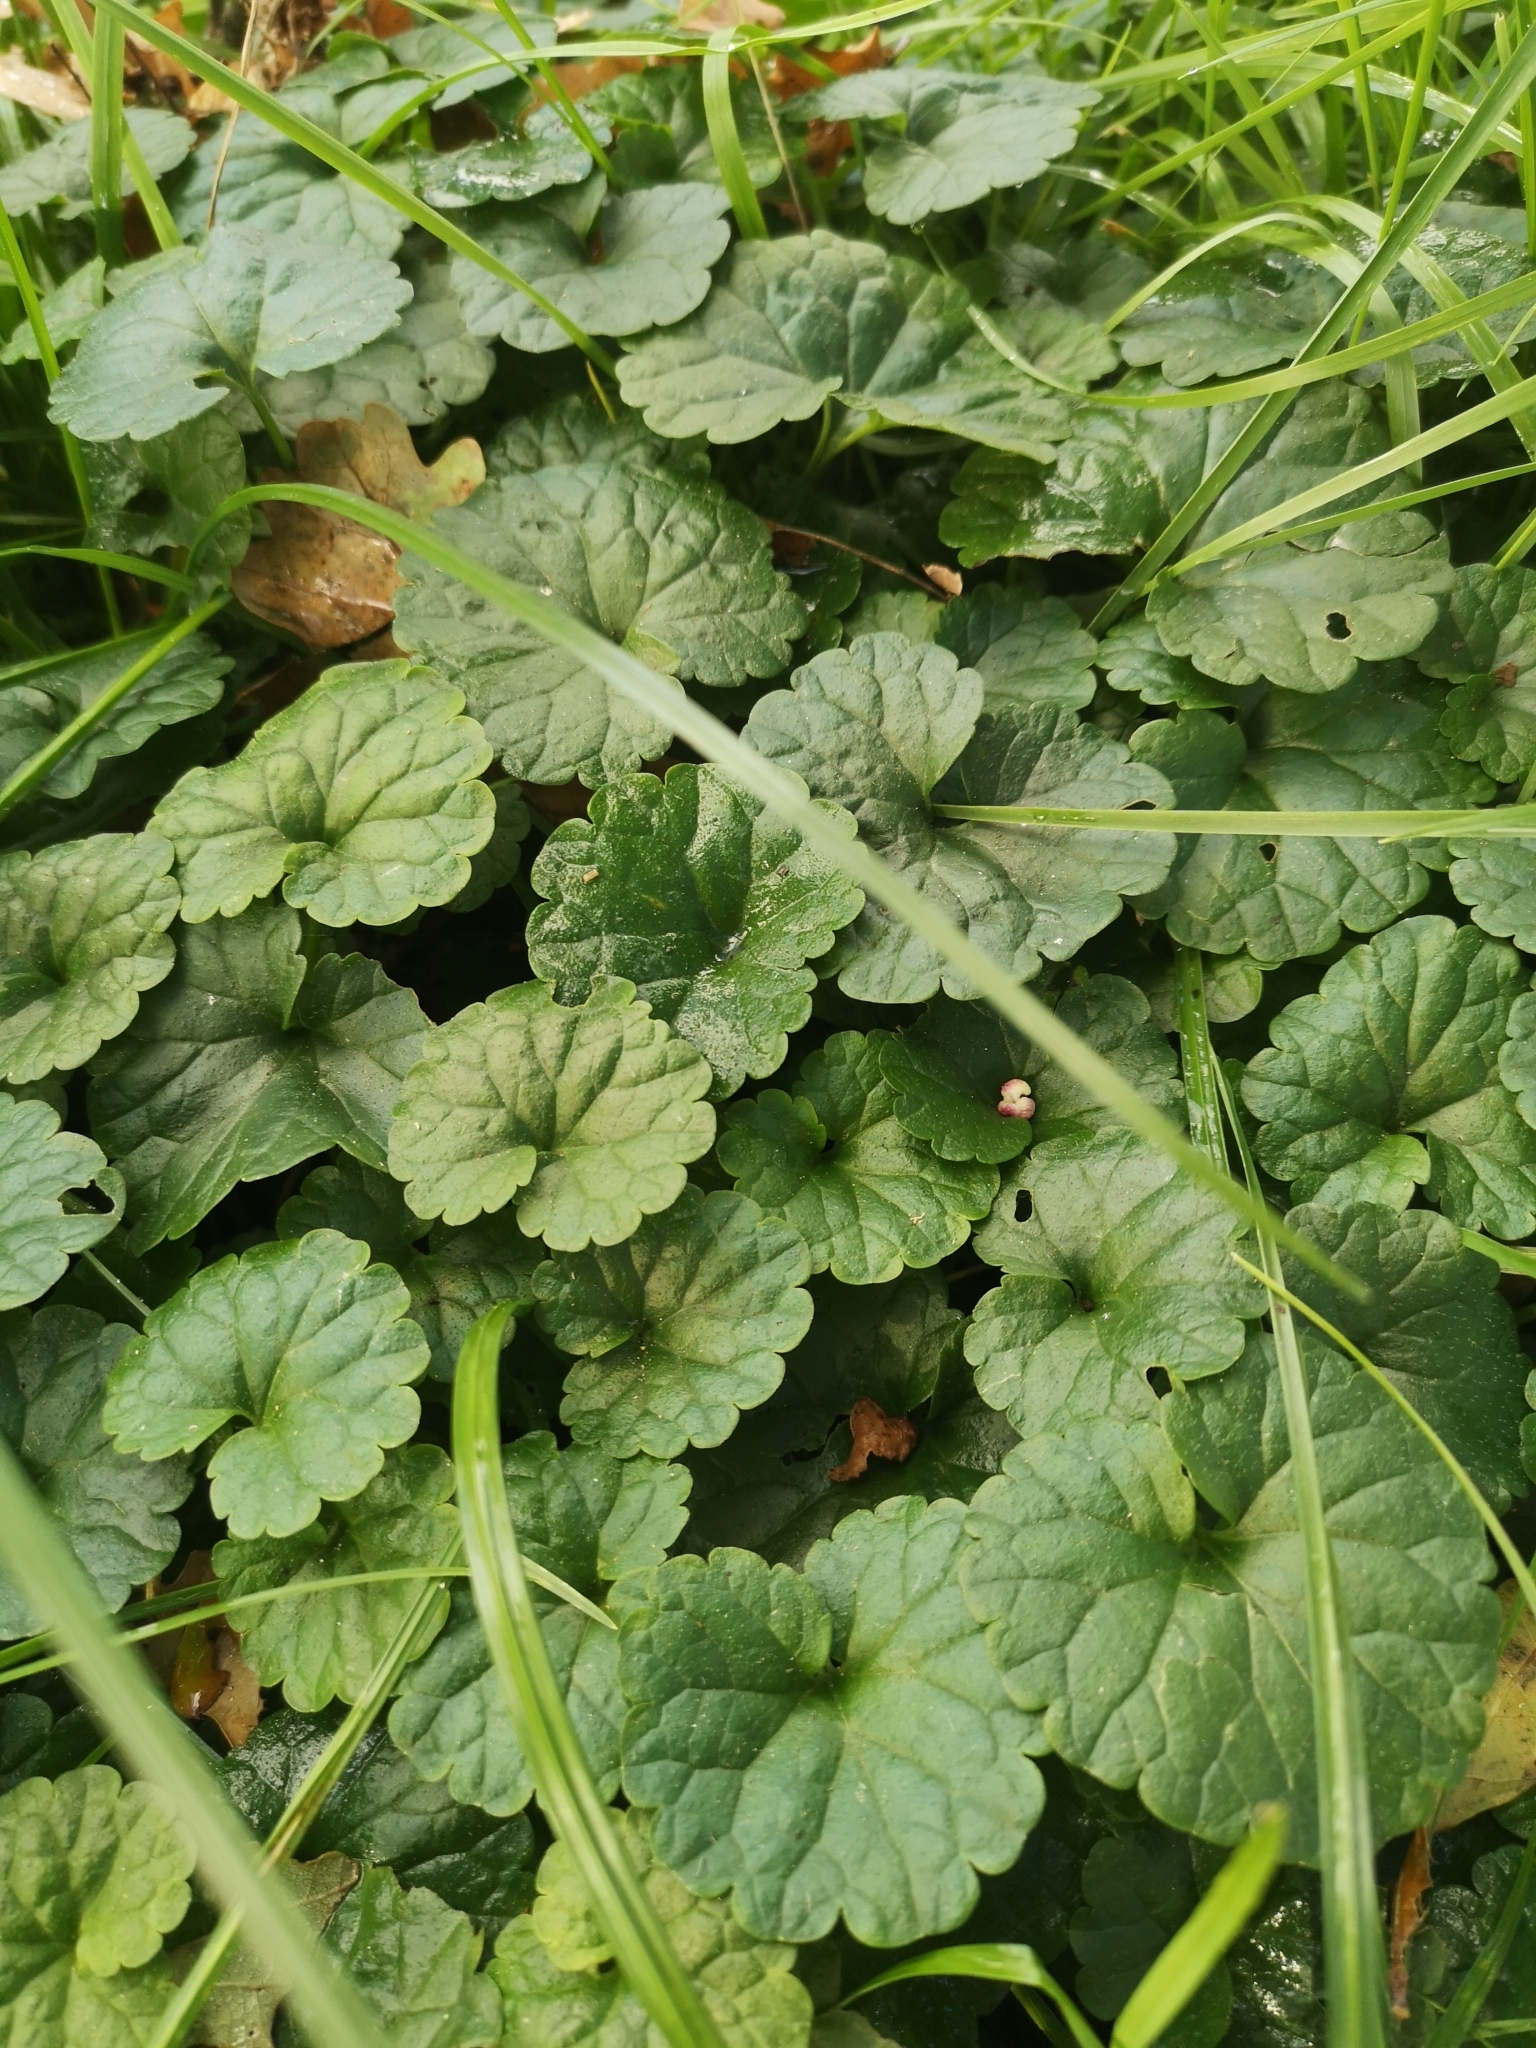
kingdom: Plantae
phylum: Tracheophyta
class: Magnoliopsida
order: Lamiales
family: Lamiaceae
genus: Glechoma
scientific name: Glechoma hederacea
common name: Ground ivy
